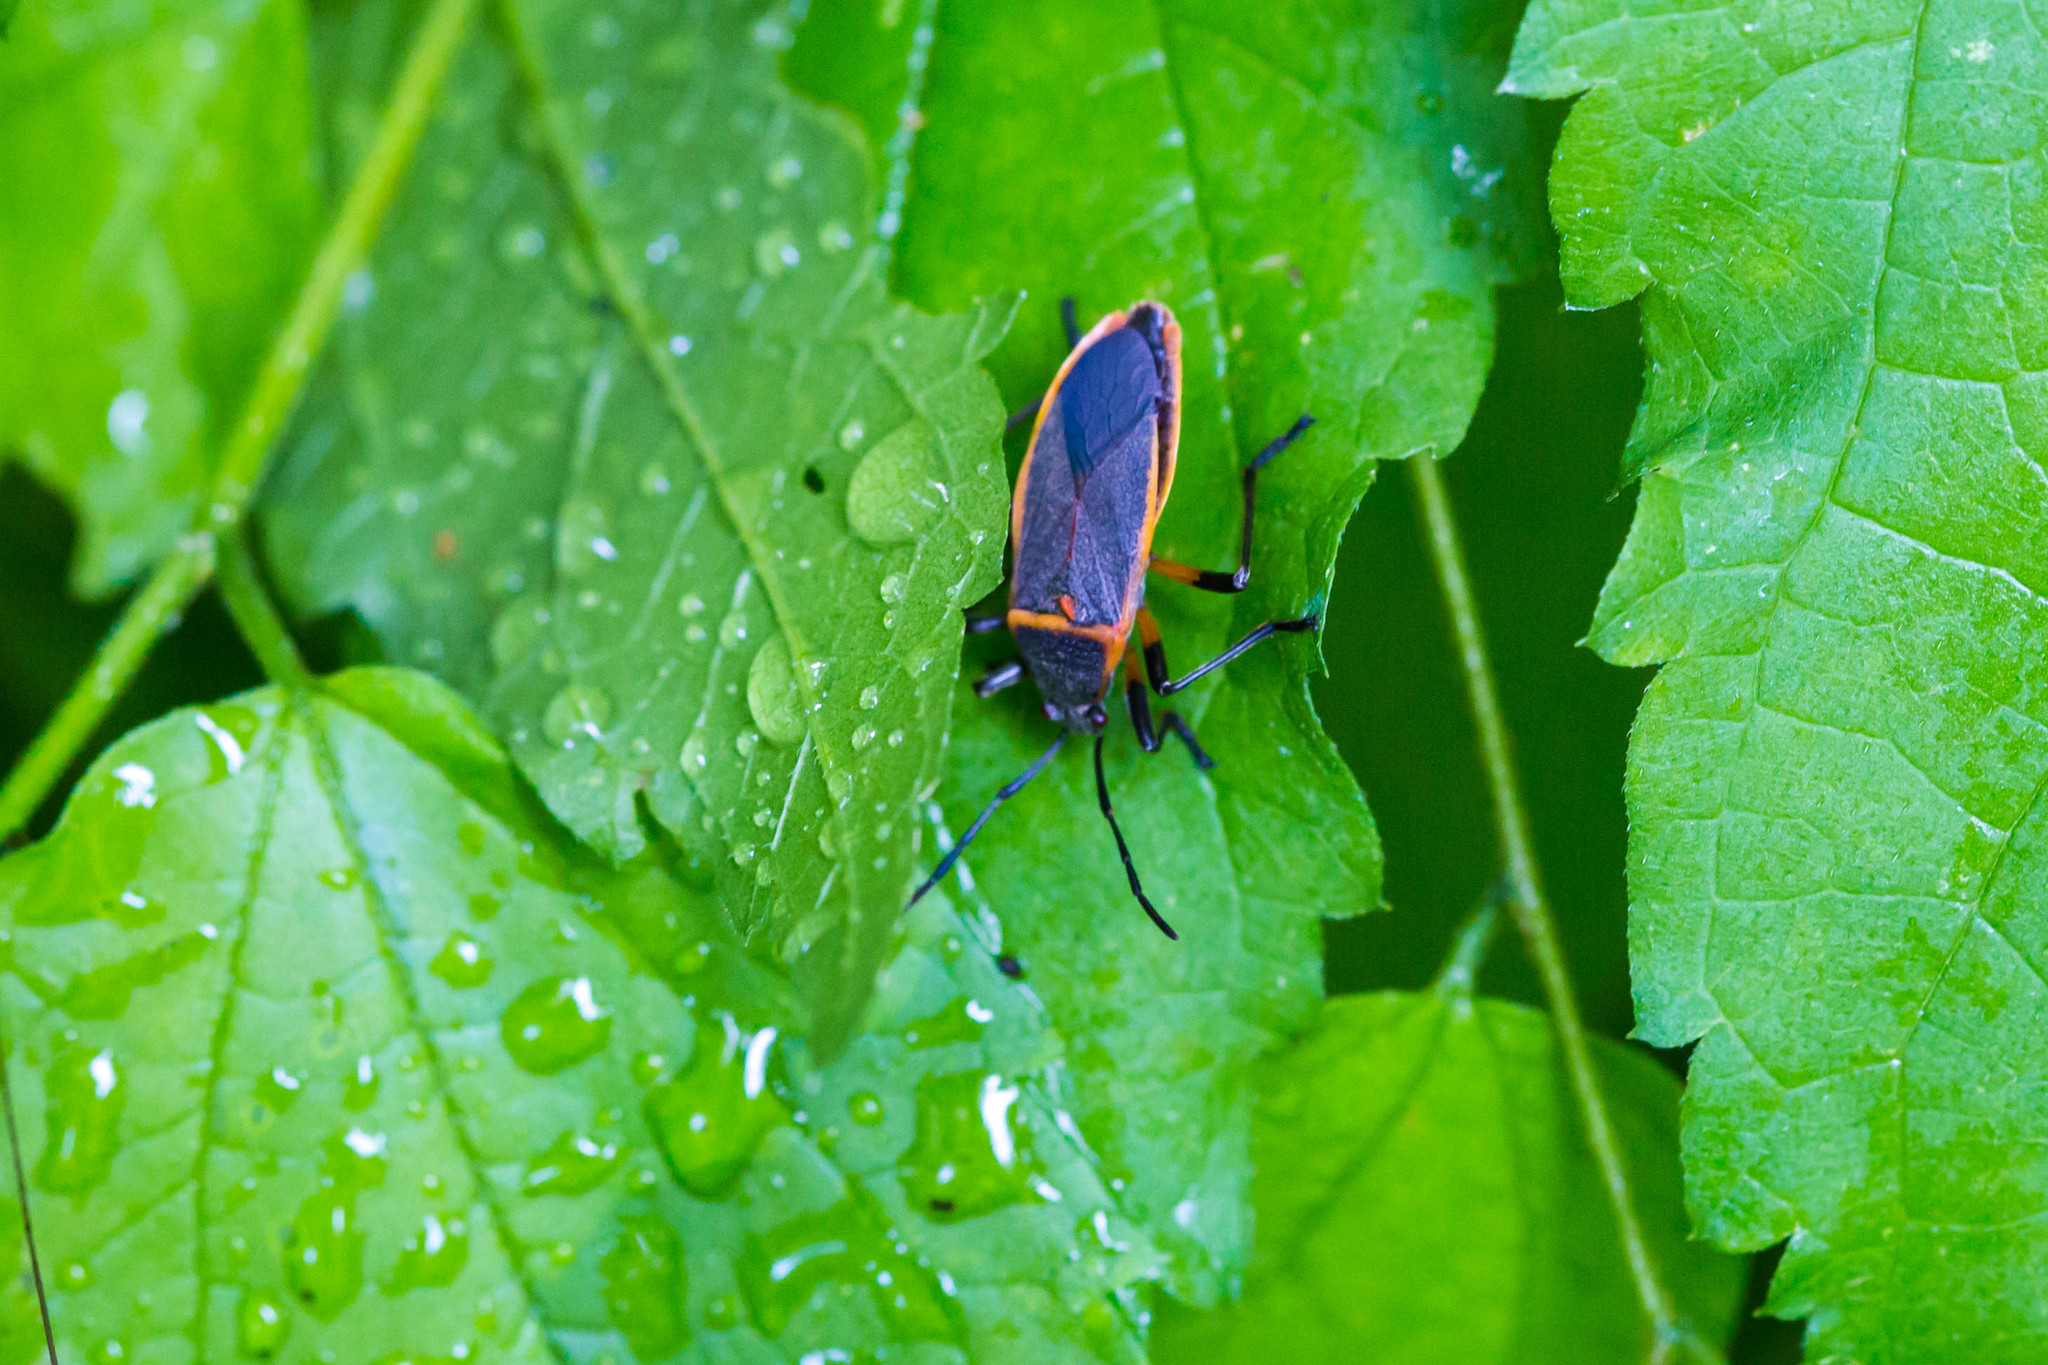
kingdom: Animalia
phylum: Arthropoda
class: Insecta
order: Hemiptera
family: Largidae
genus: Largus
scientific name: Largus succinctus
